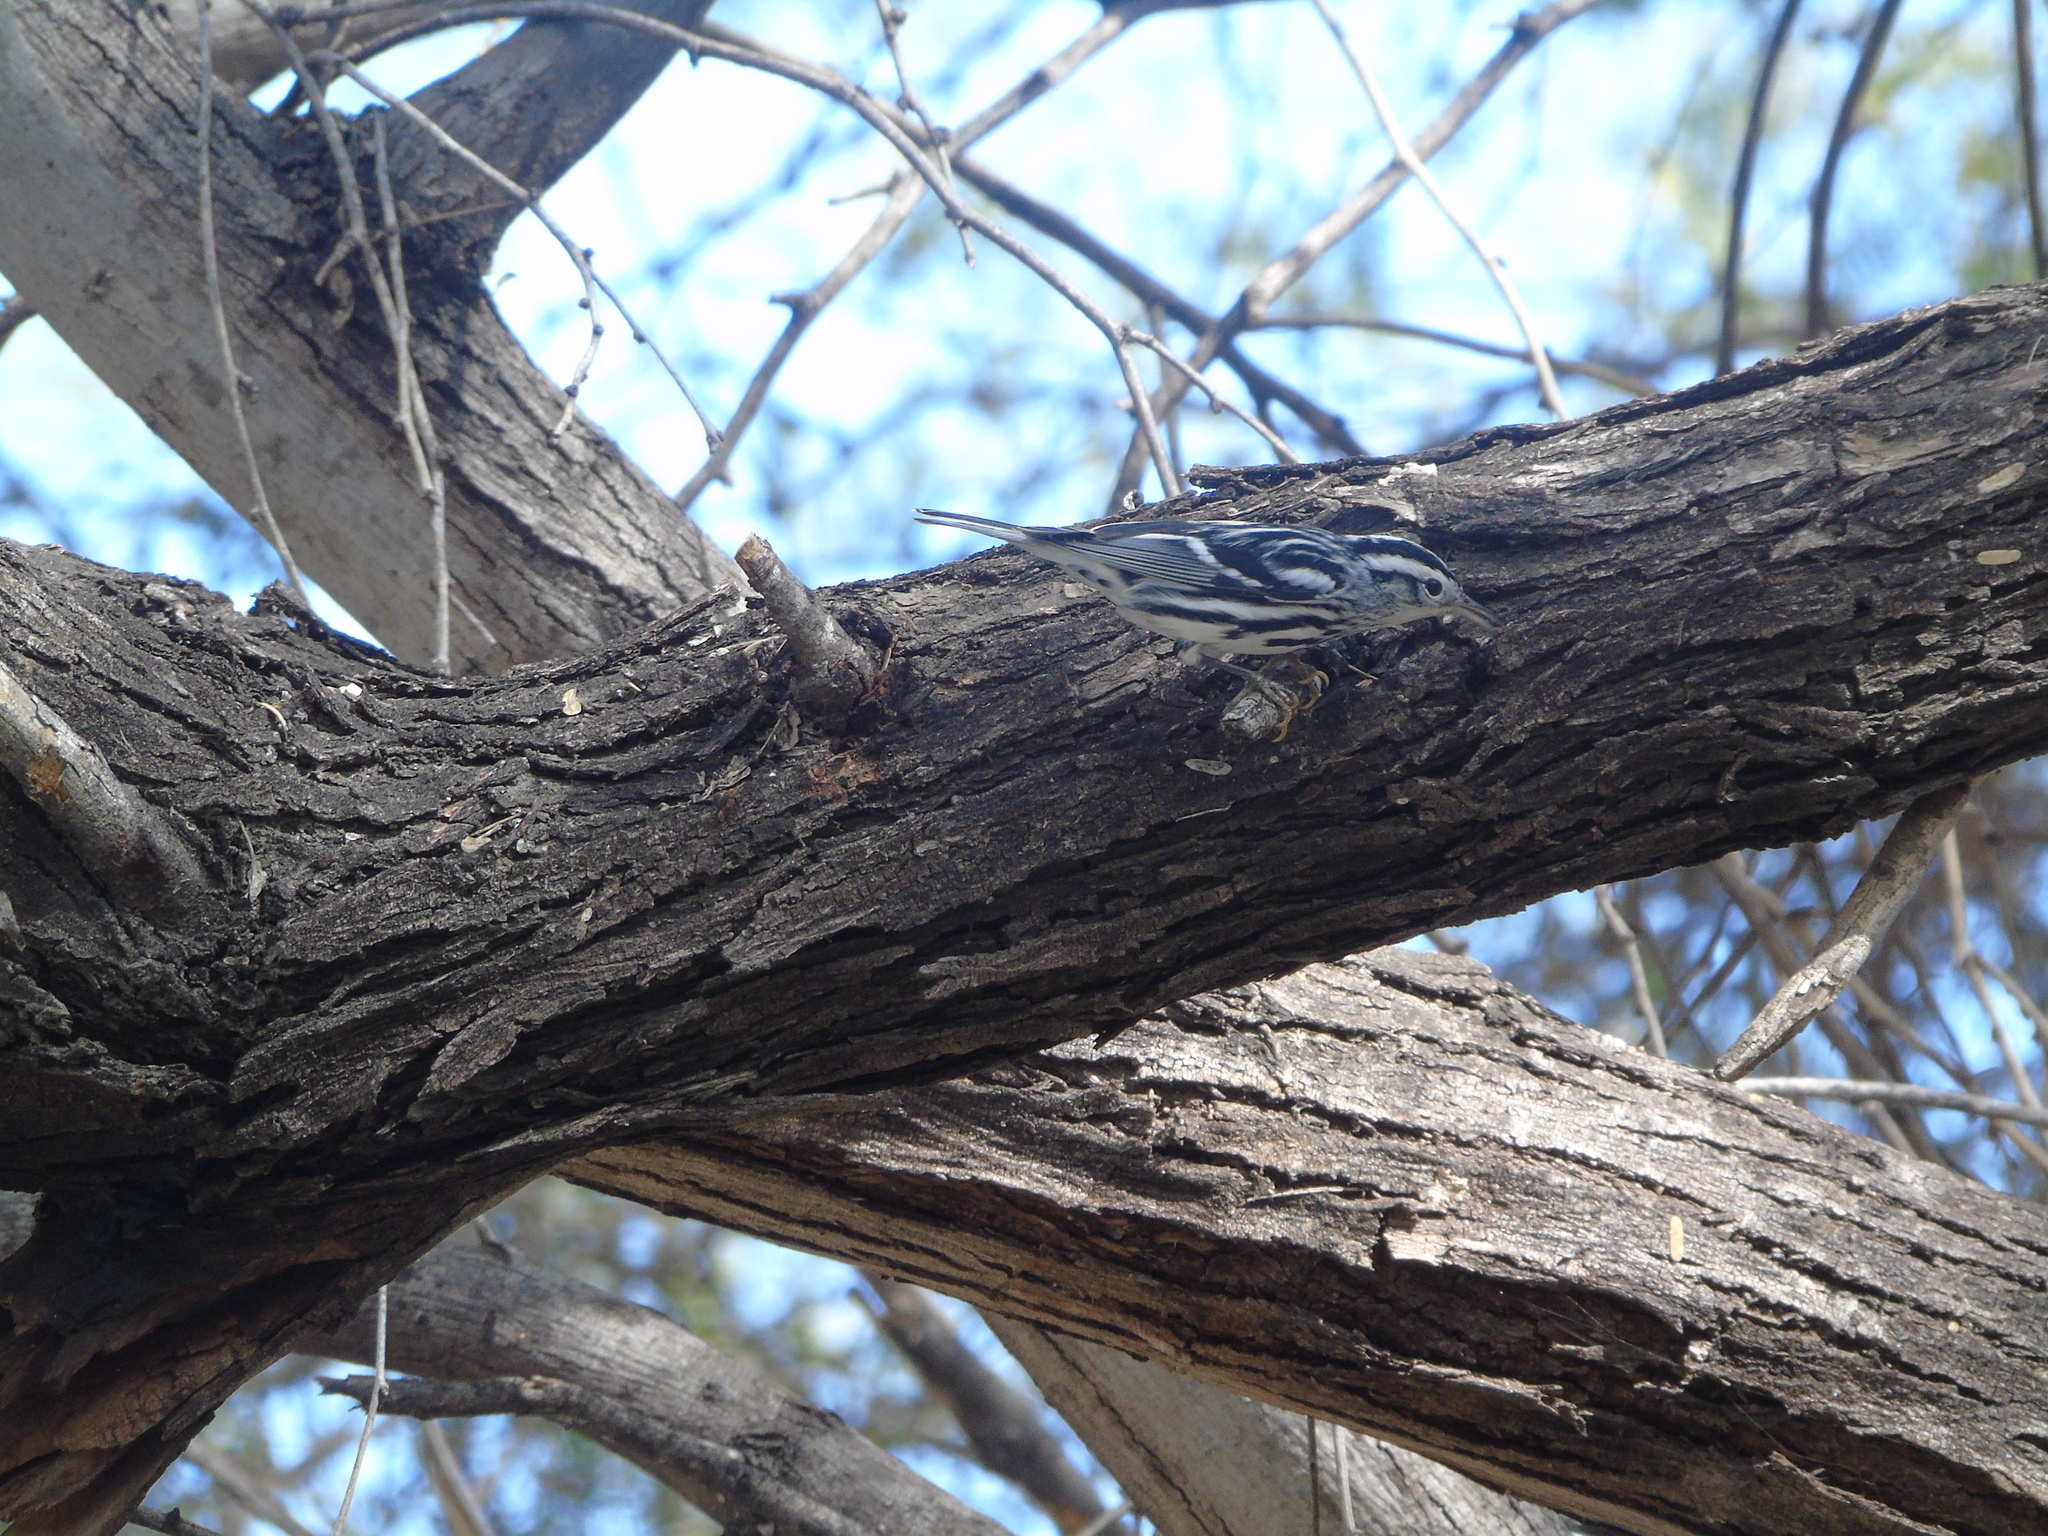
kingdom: Animalia
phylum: Chordata
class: Aves
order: Passeriformes
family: Parulidae
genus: Mniotilta
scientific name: Mniotilta varia
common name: Black-and-white warbler
